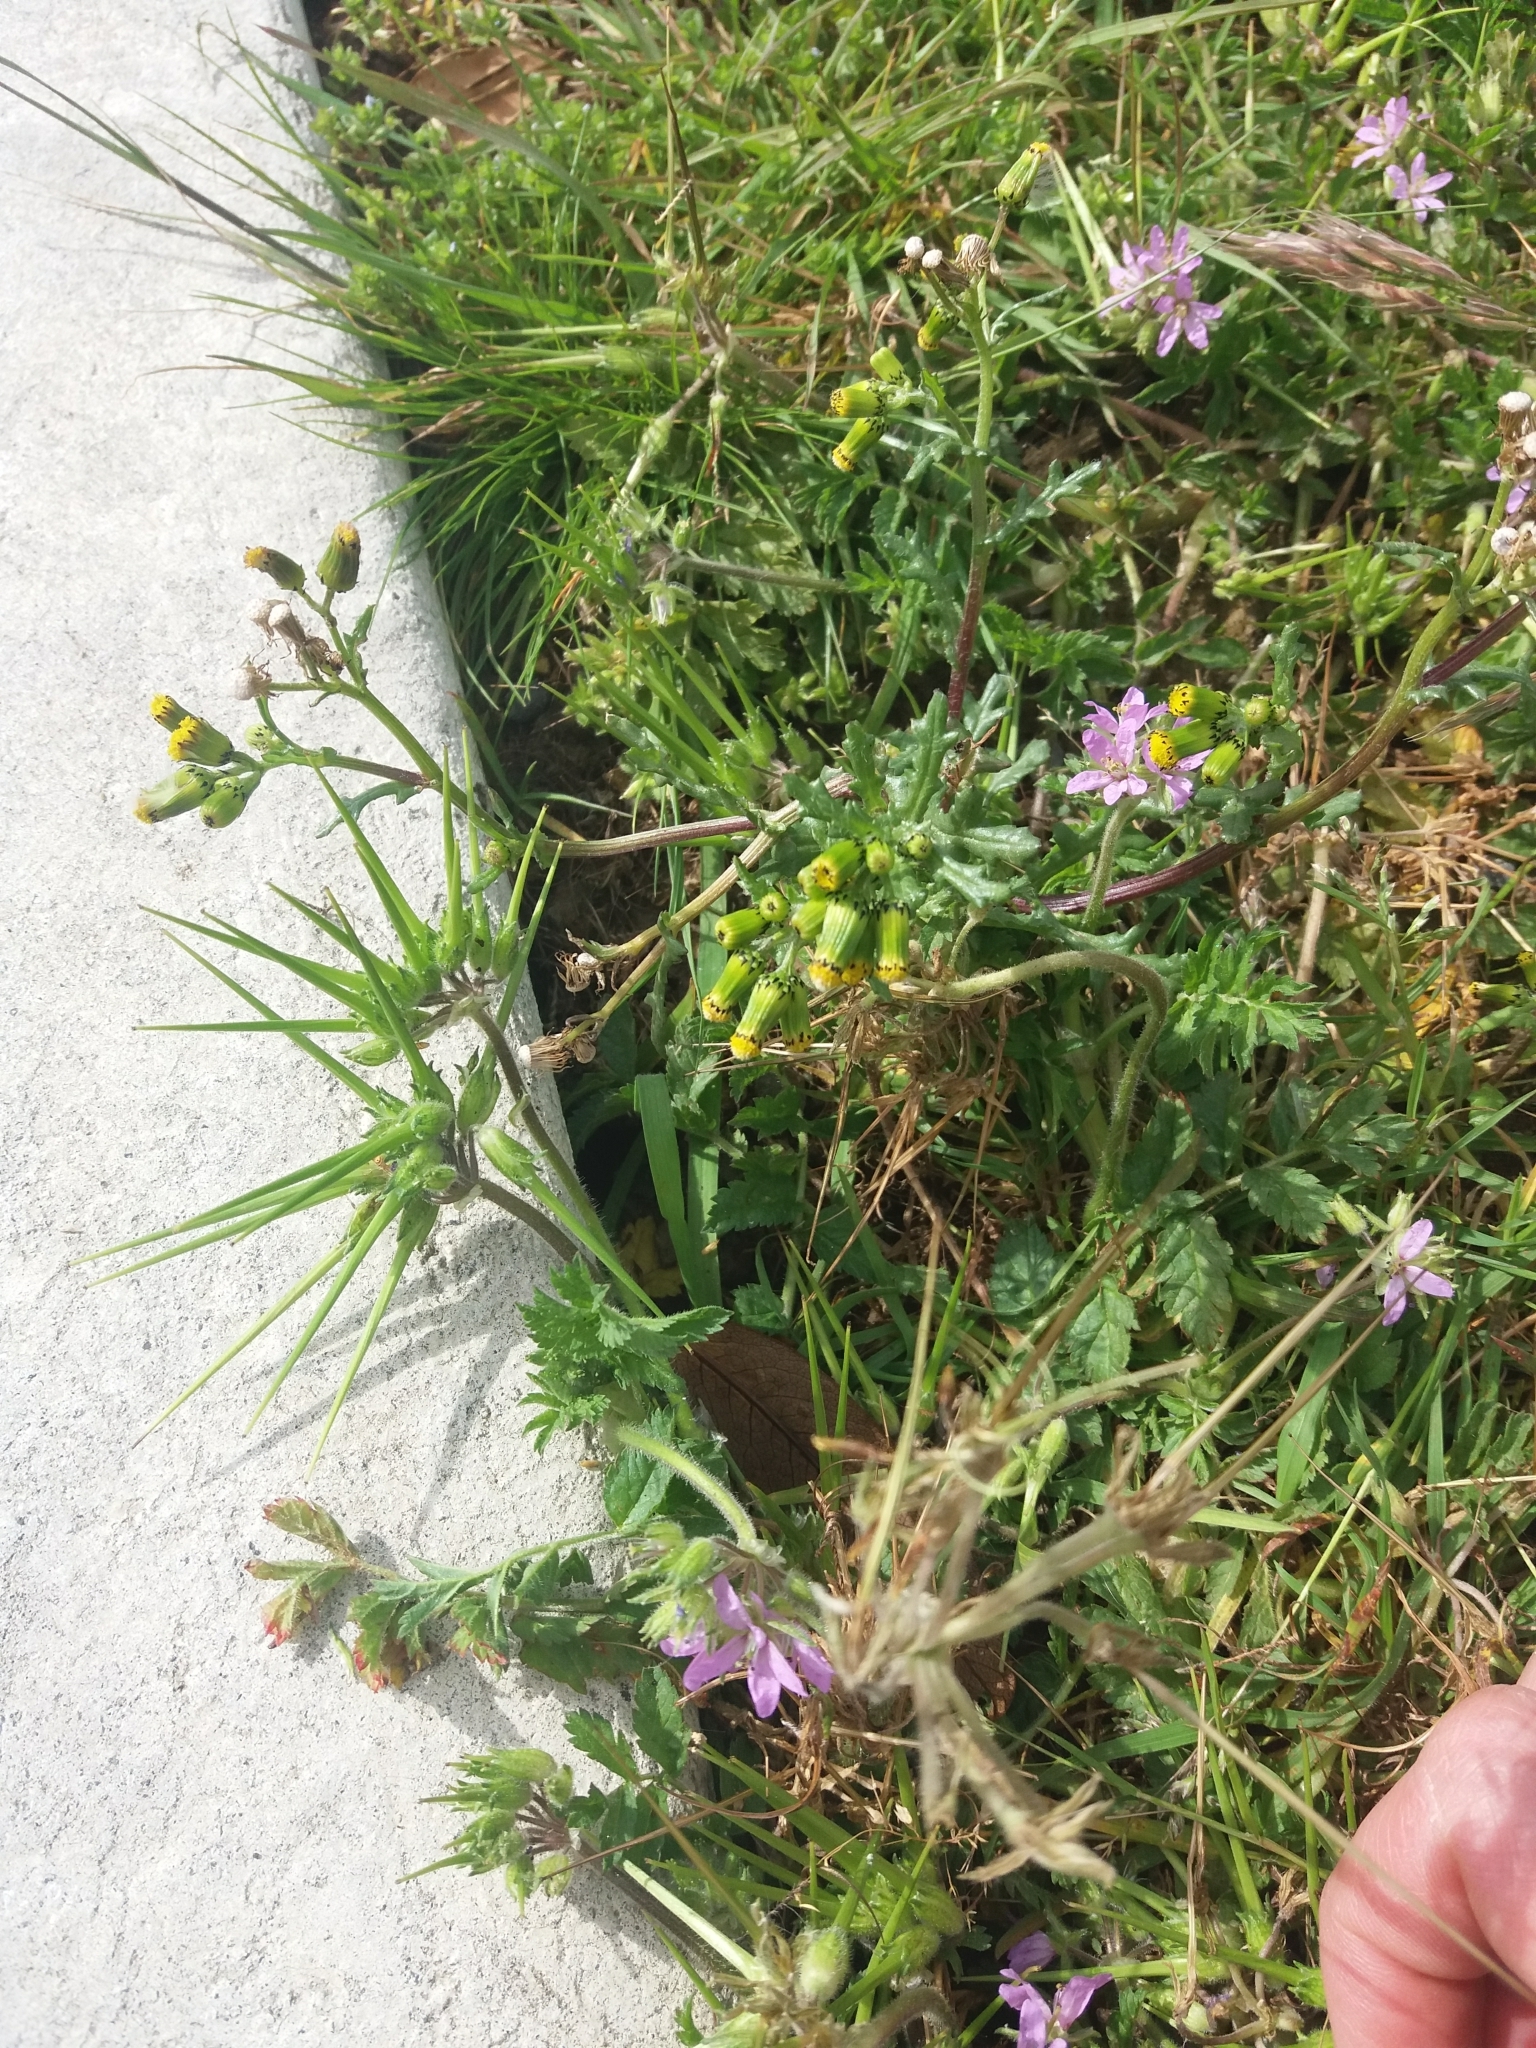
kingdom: Plantae
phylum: Tracheophyta
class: Magnoliopsida
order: Asterales
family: Asteraceae
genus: Senecio
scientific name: Senecio vulgaris
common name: Old-man-in-the-spring
